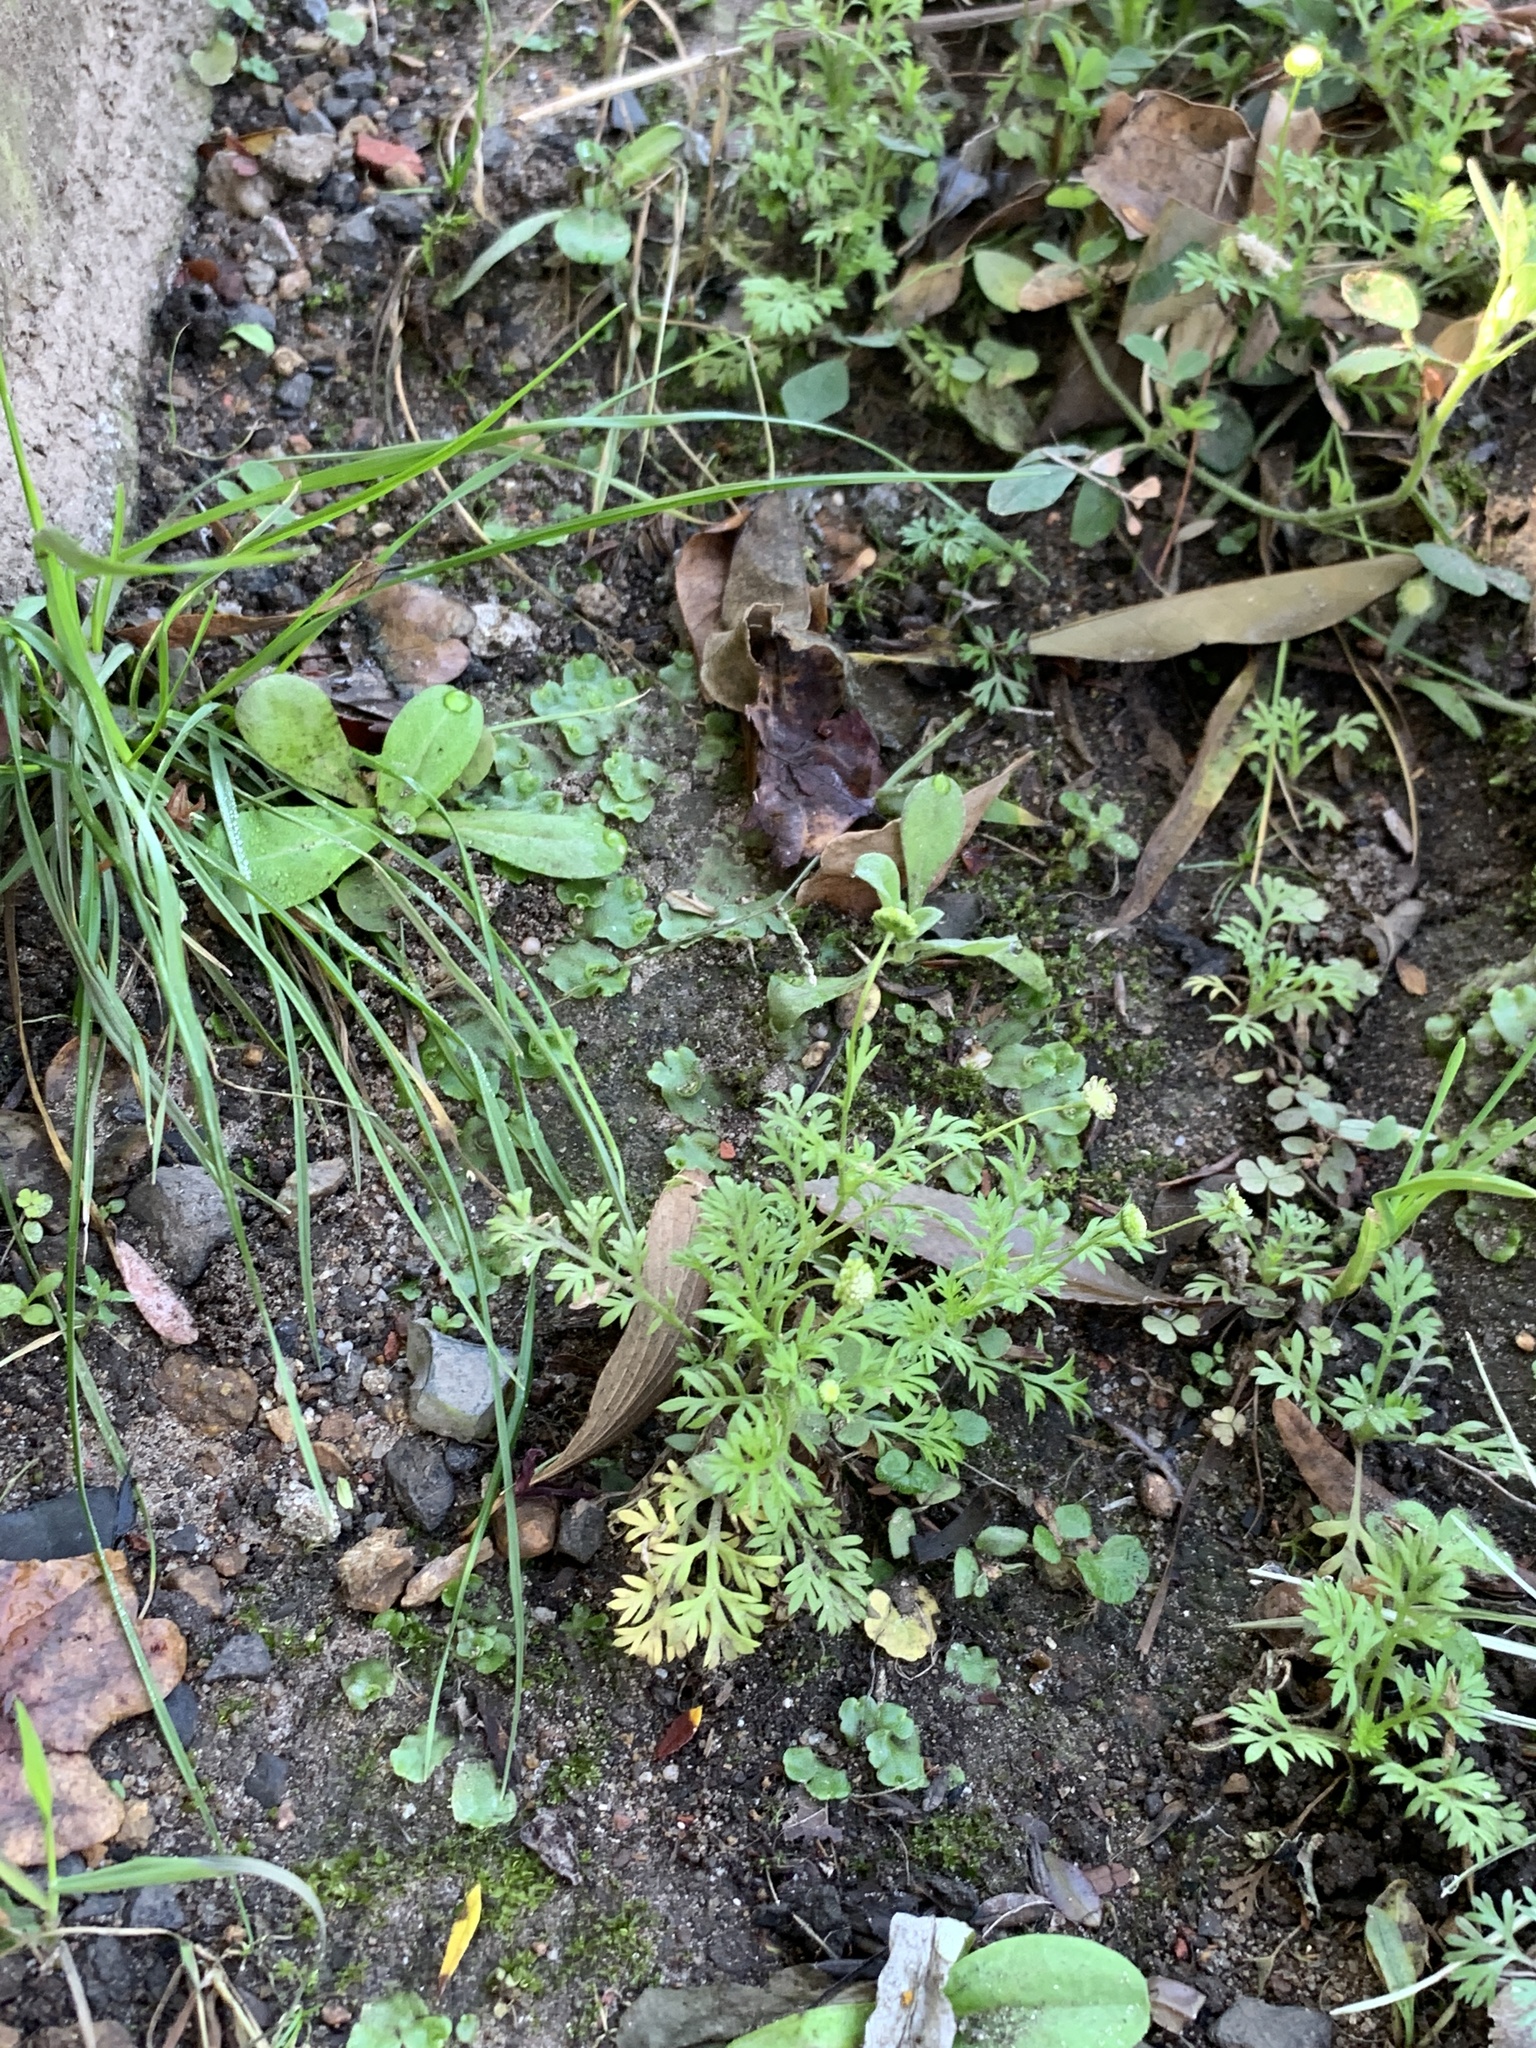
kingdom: Plantae
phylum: Tracheophyta
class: Magnoliopsida
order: Asterales
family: Asteraceae
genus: Cotula
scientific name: Cotula australis
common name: Australian waterbuttons
